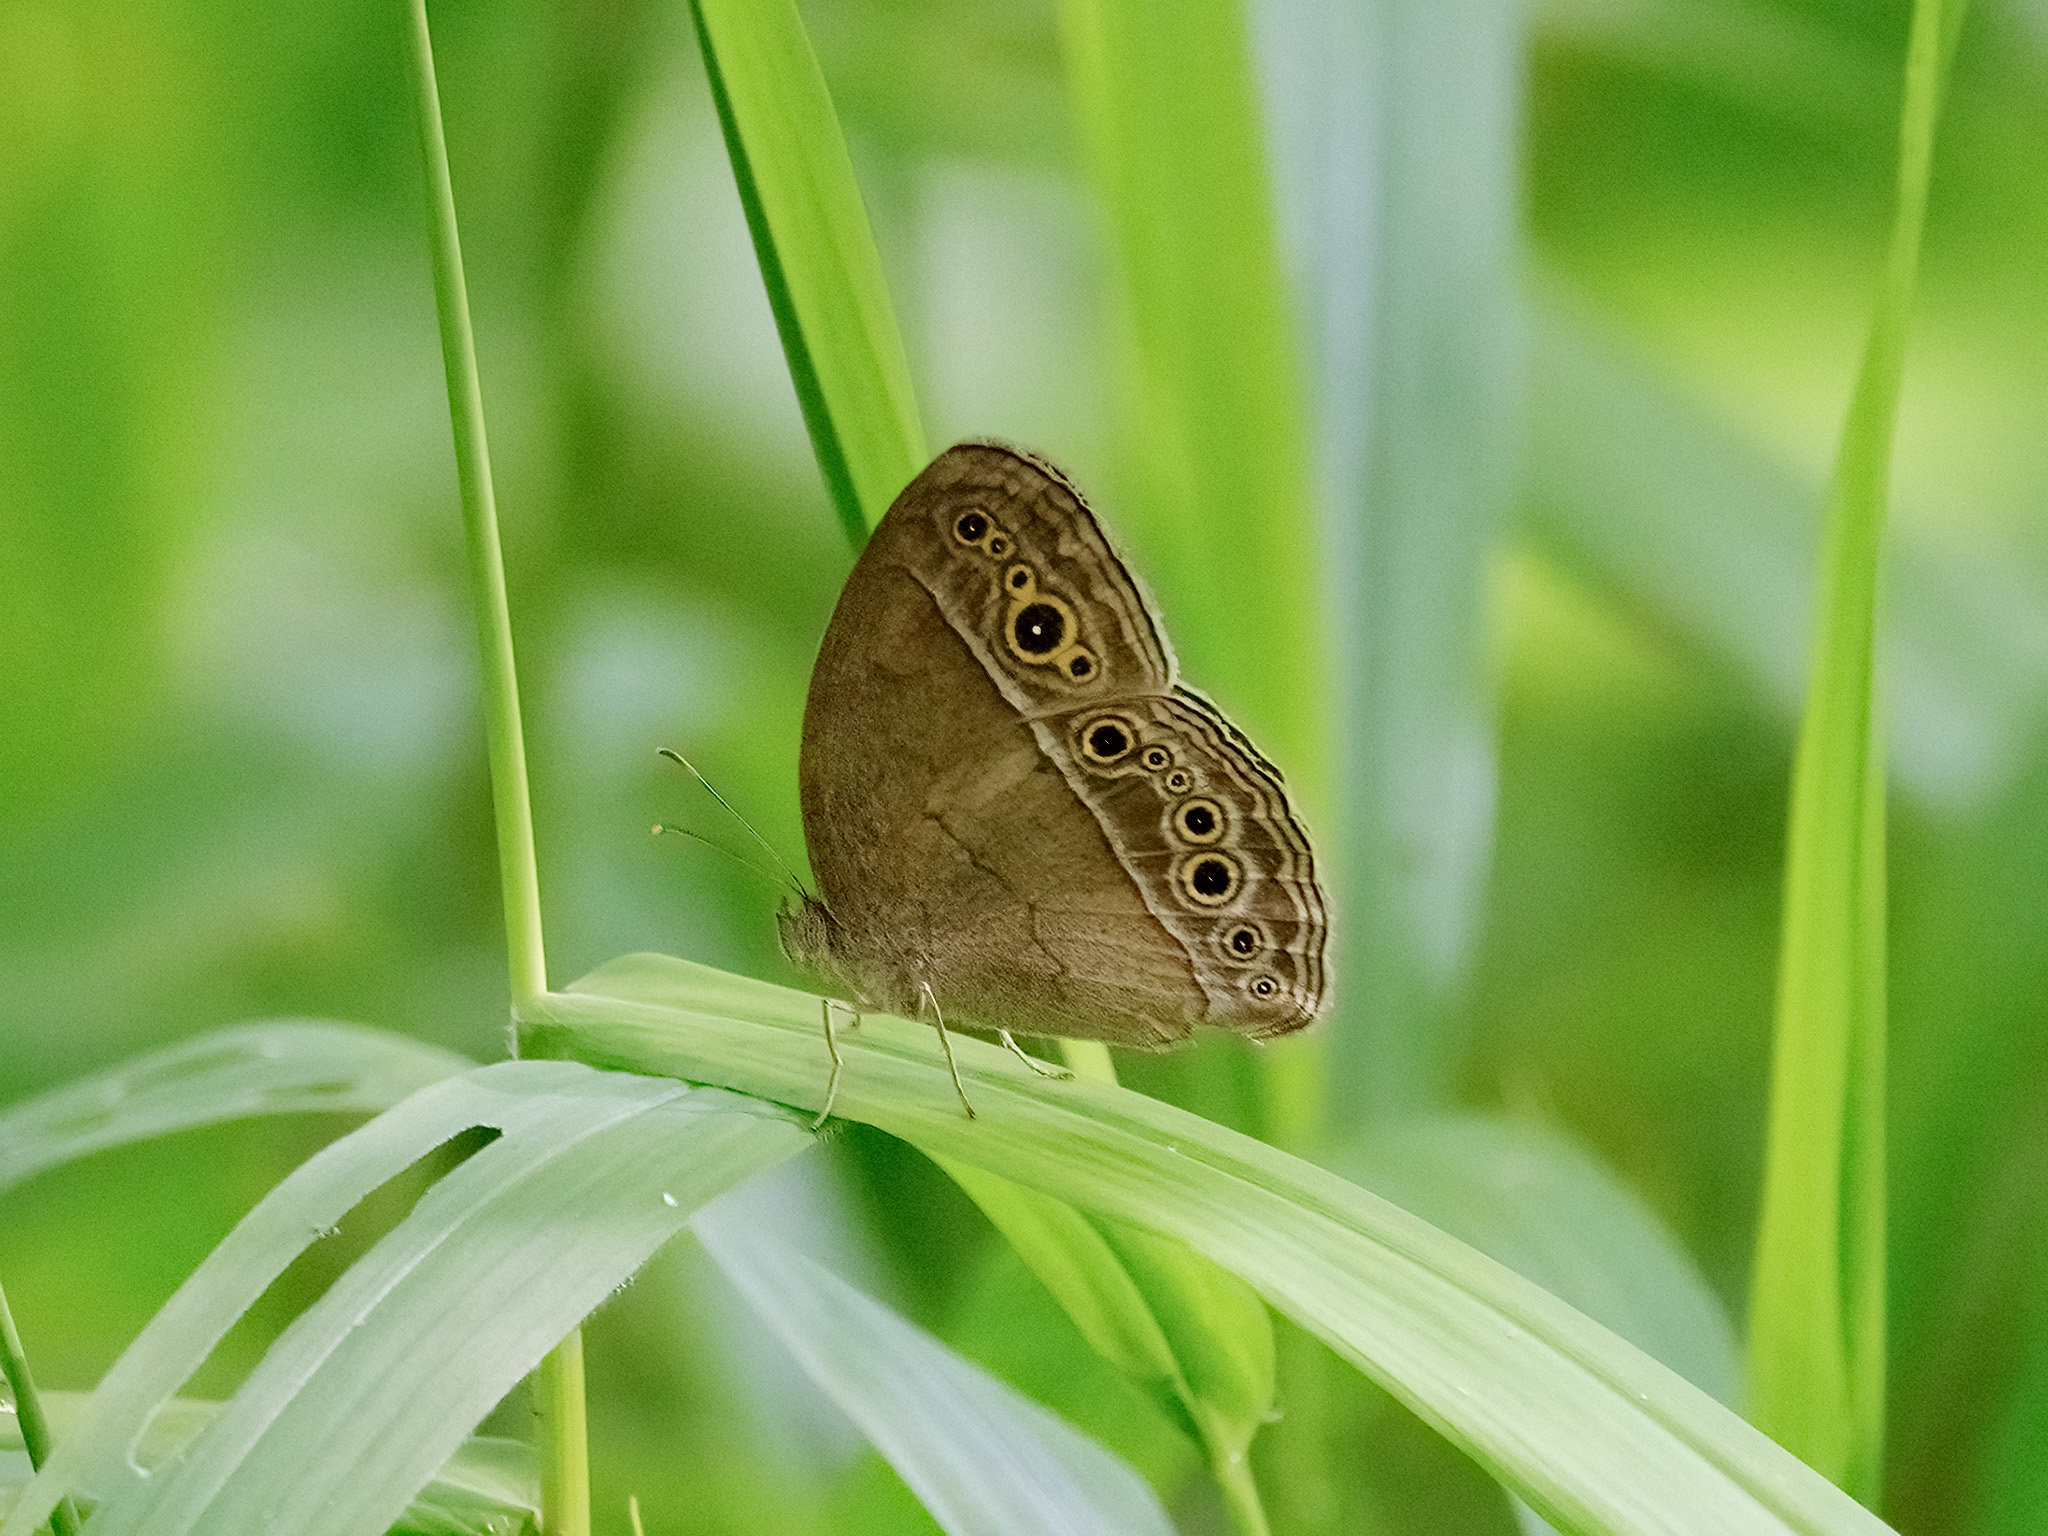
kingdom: Animalia
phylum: Arthropoda
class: Insecta
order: Lepidoptera
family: Nymphalidae
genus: Mycalesis
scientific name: Mycalesis perseoides
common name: Burmese bushbrown
